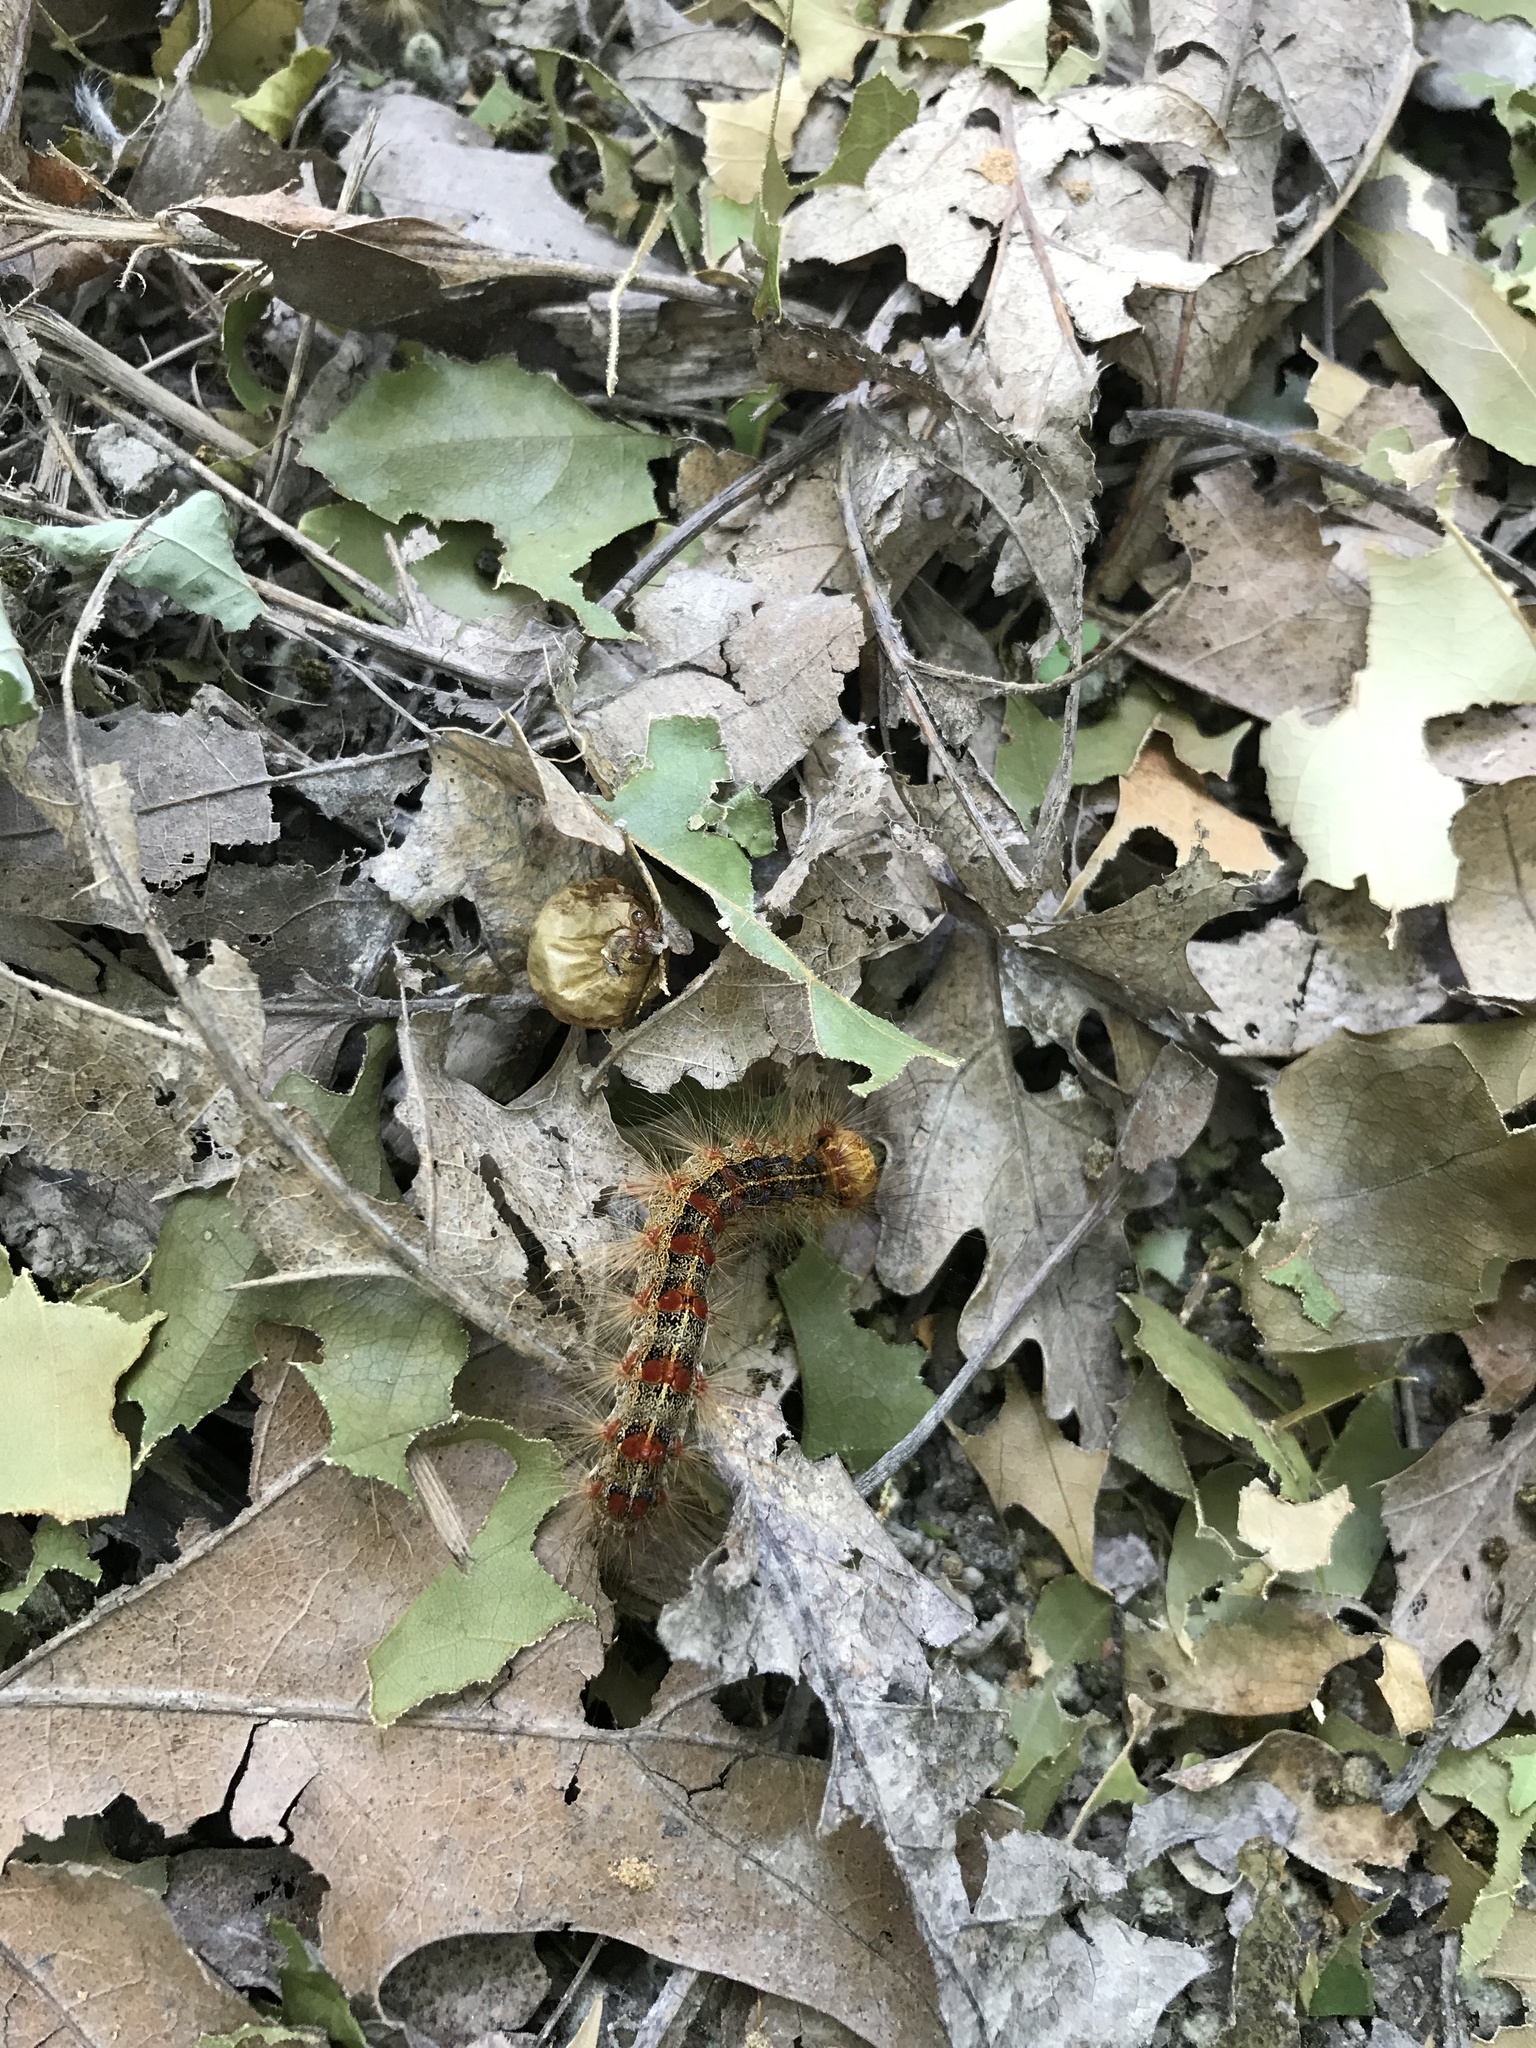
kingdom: Animalia
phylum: Arthropoda
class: Insecta
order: Lepidoptera
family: Erebidae
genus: Lymantria
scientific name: Lymantria dispar
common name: Gypsy moth
